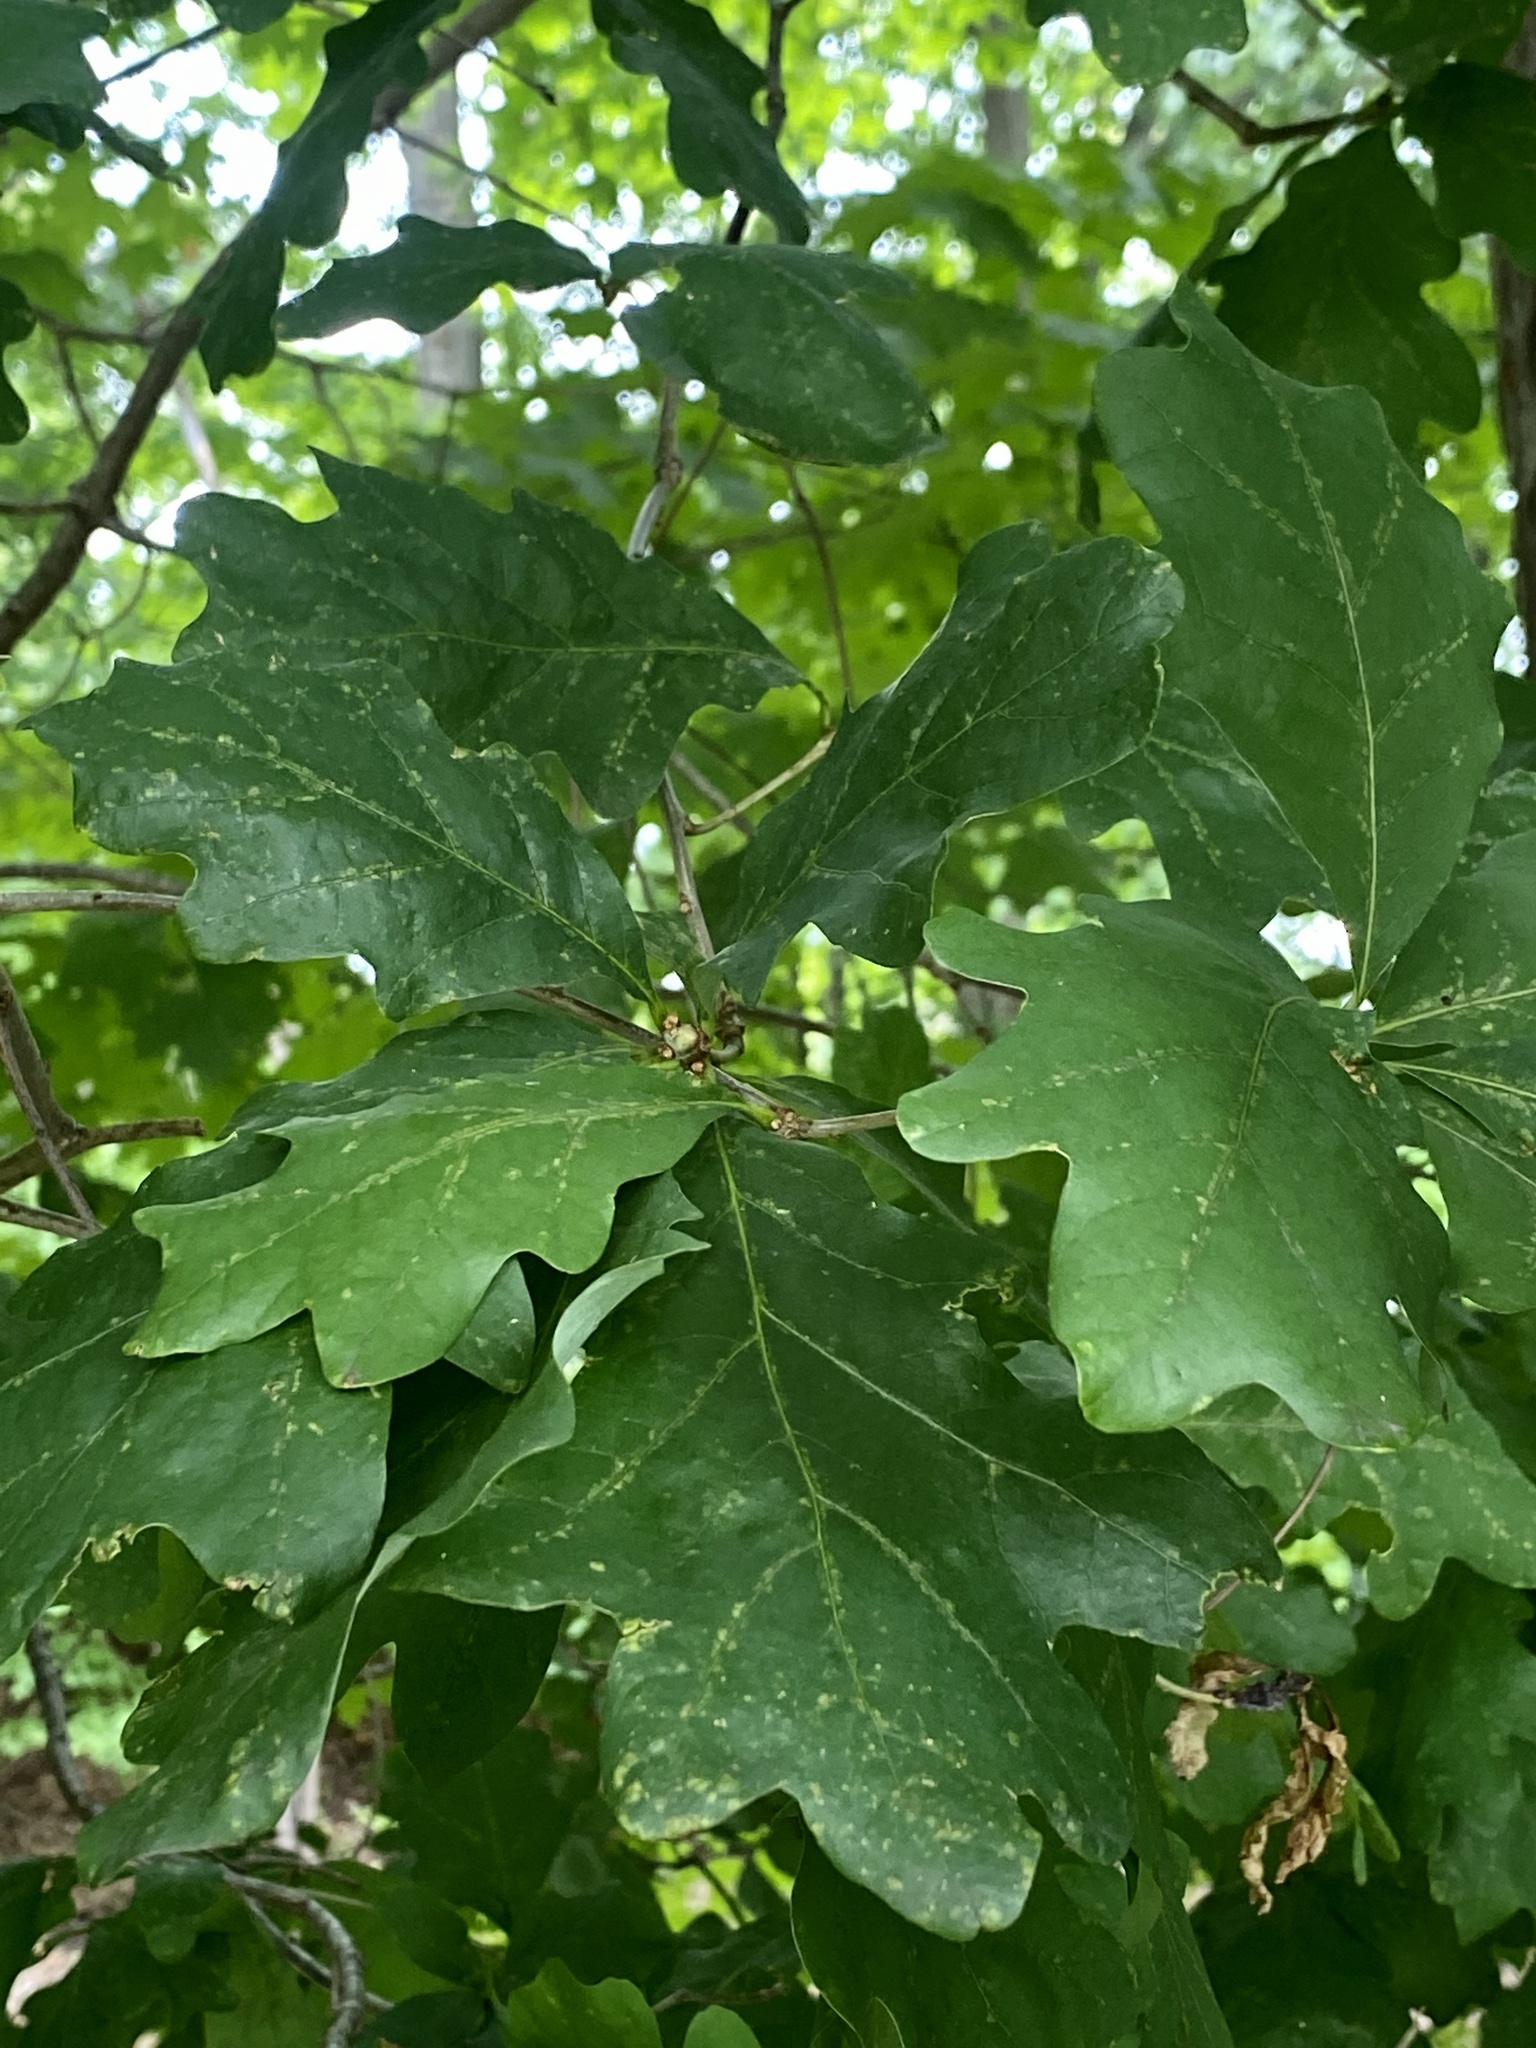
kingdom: Plantae
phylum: Tracheophyta
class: Magnoliopsida
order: Fagales
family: Fagaceae
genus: Quercus
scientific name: Quercus alba
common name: White oak
